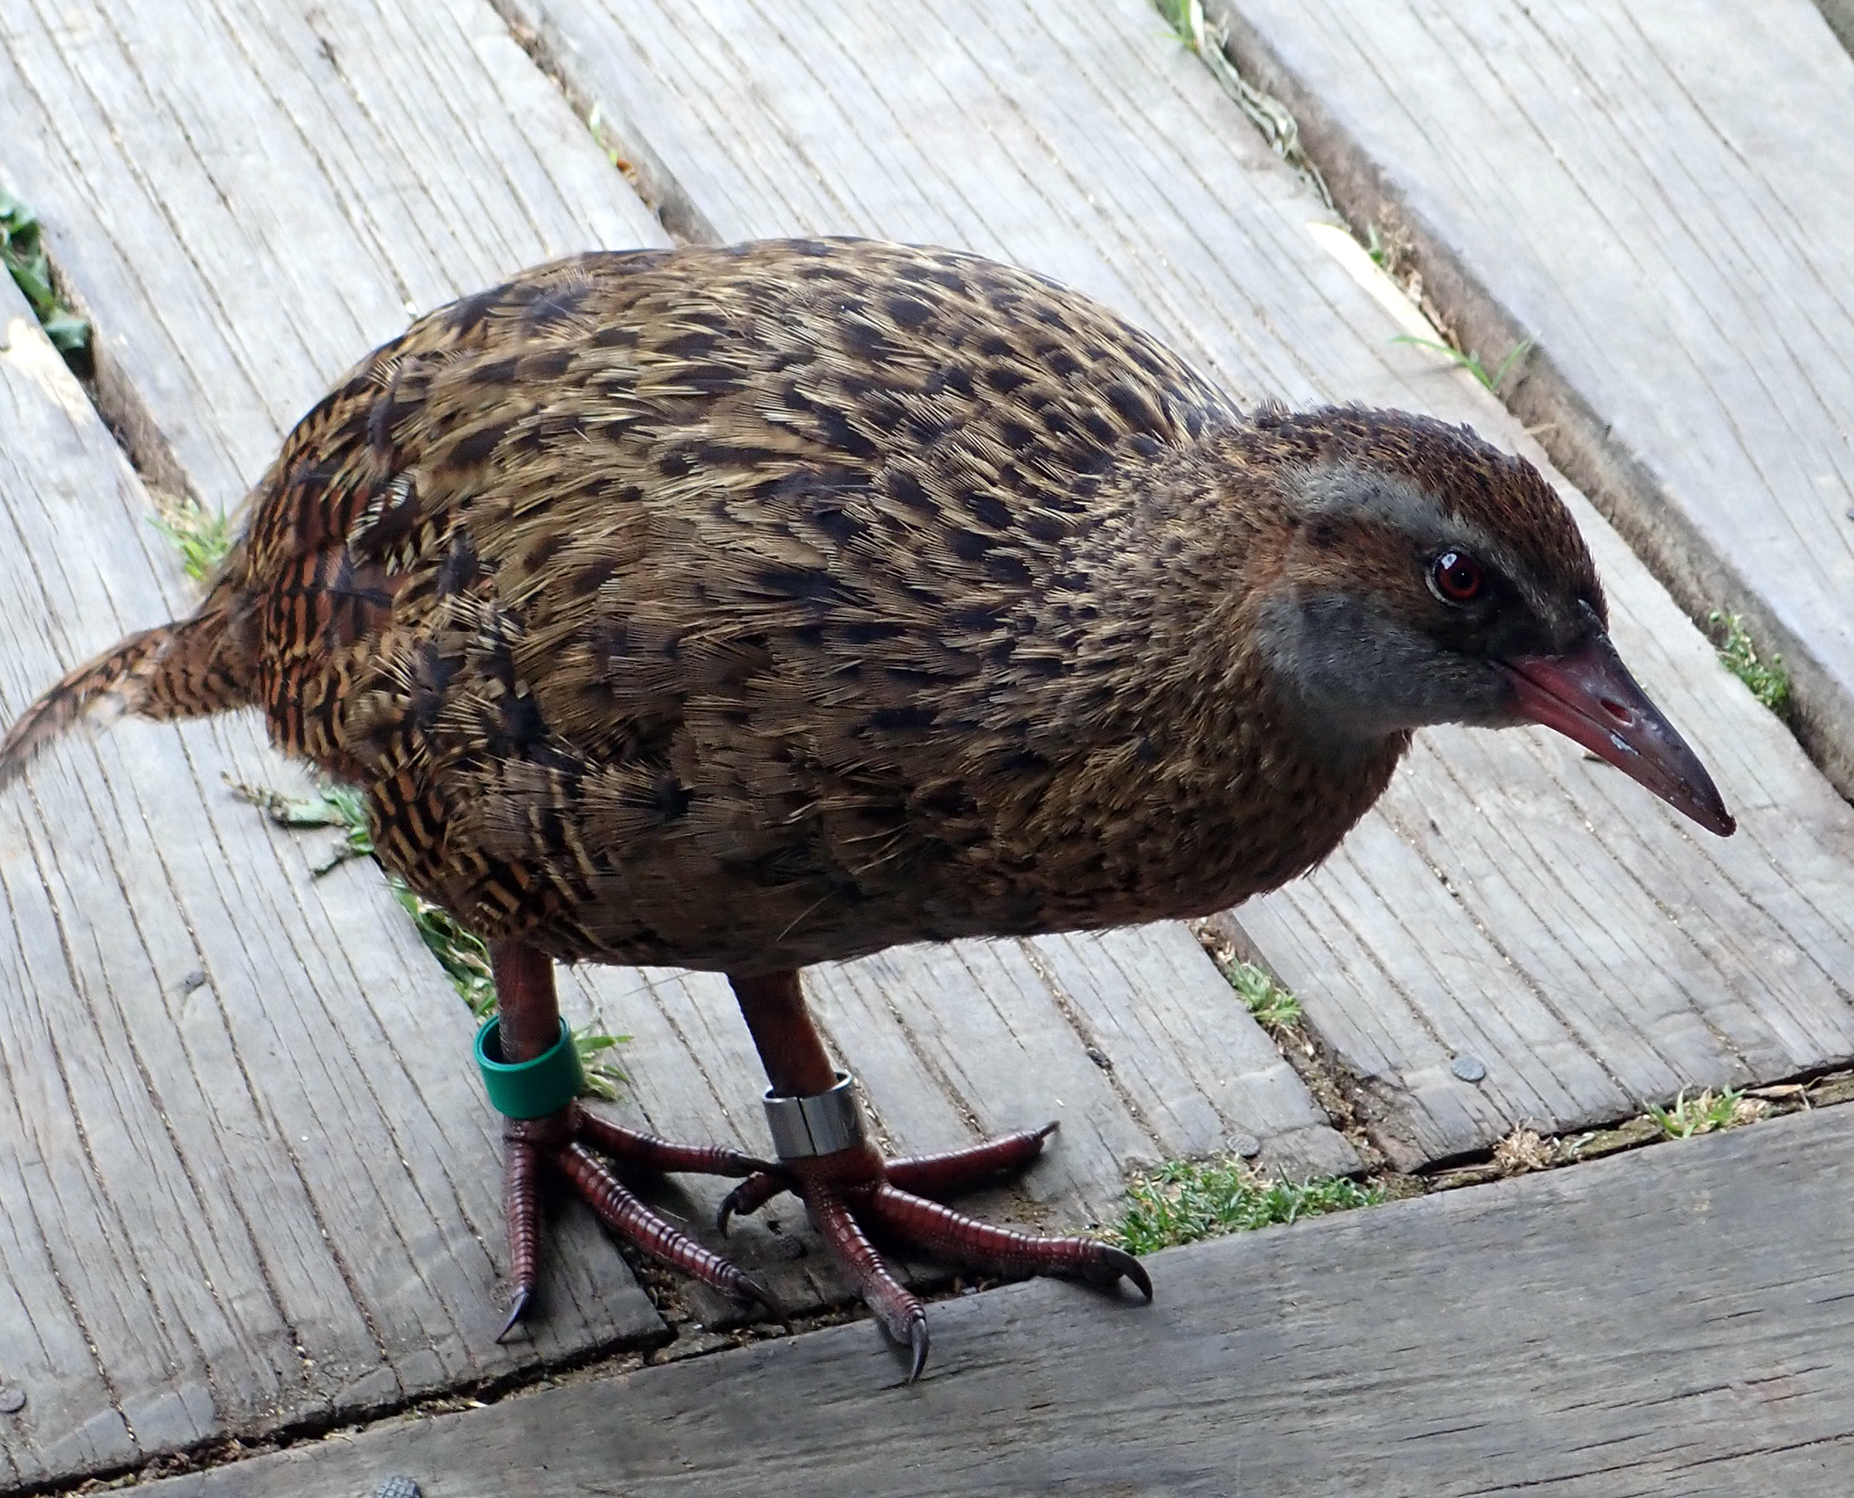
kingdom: Animalia
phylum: Chordata
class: Aves
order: Gruiformes
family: Rallidae
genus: Gallirallus
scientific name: Gallirallus australis
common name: Weka
